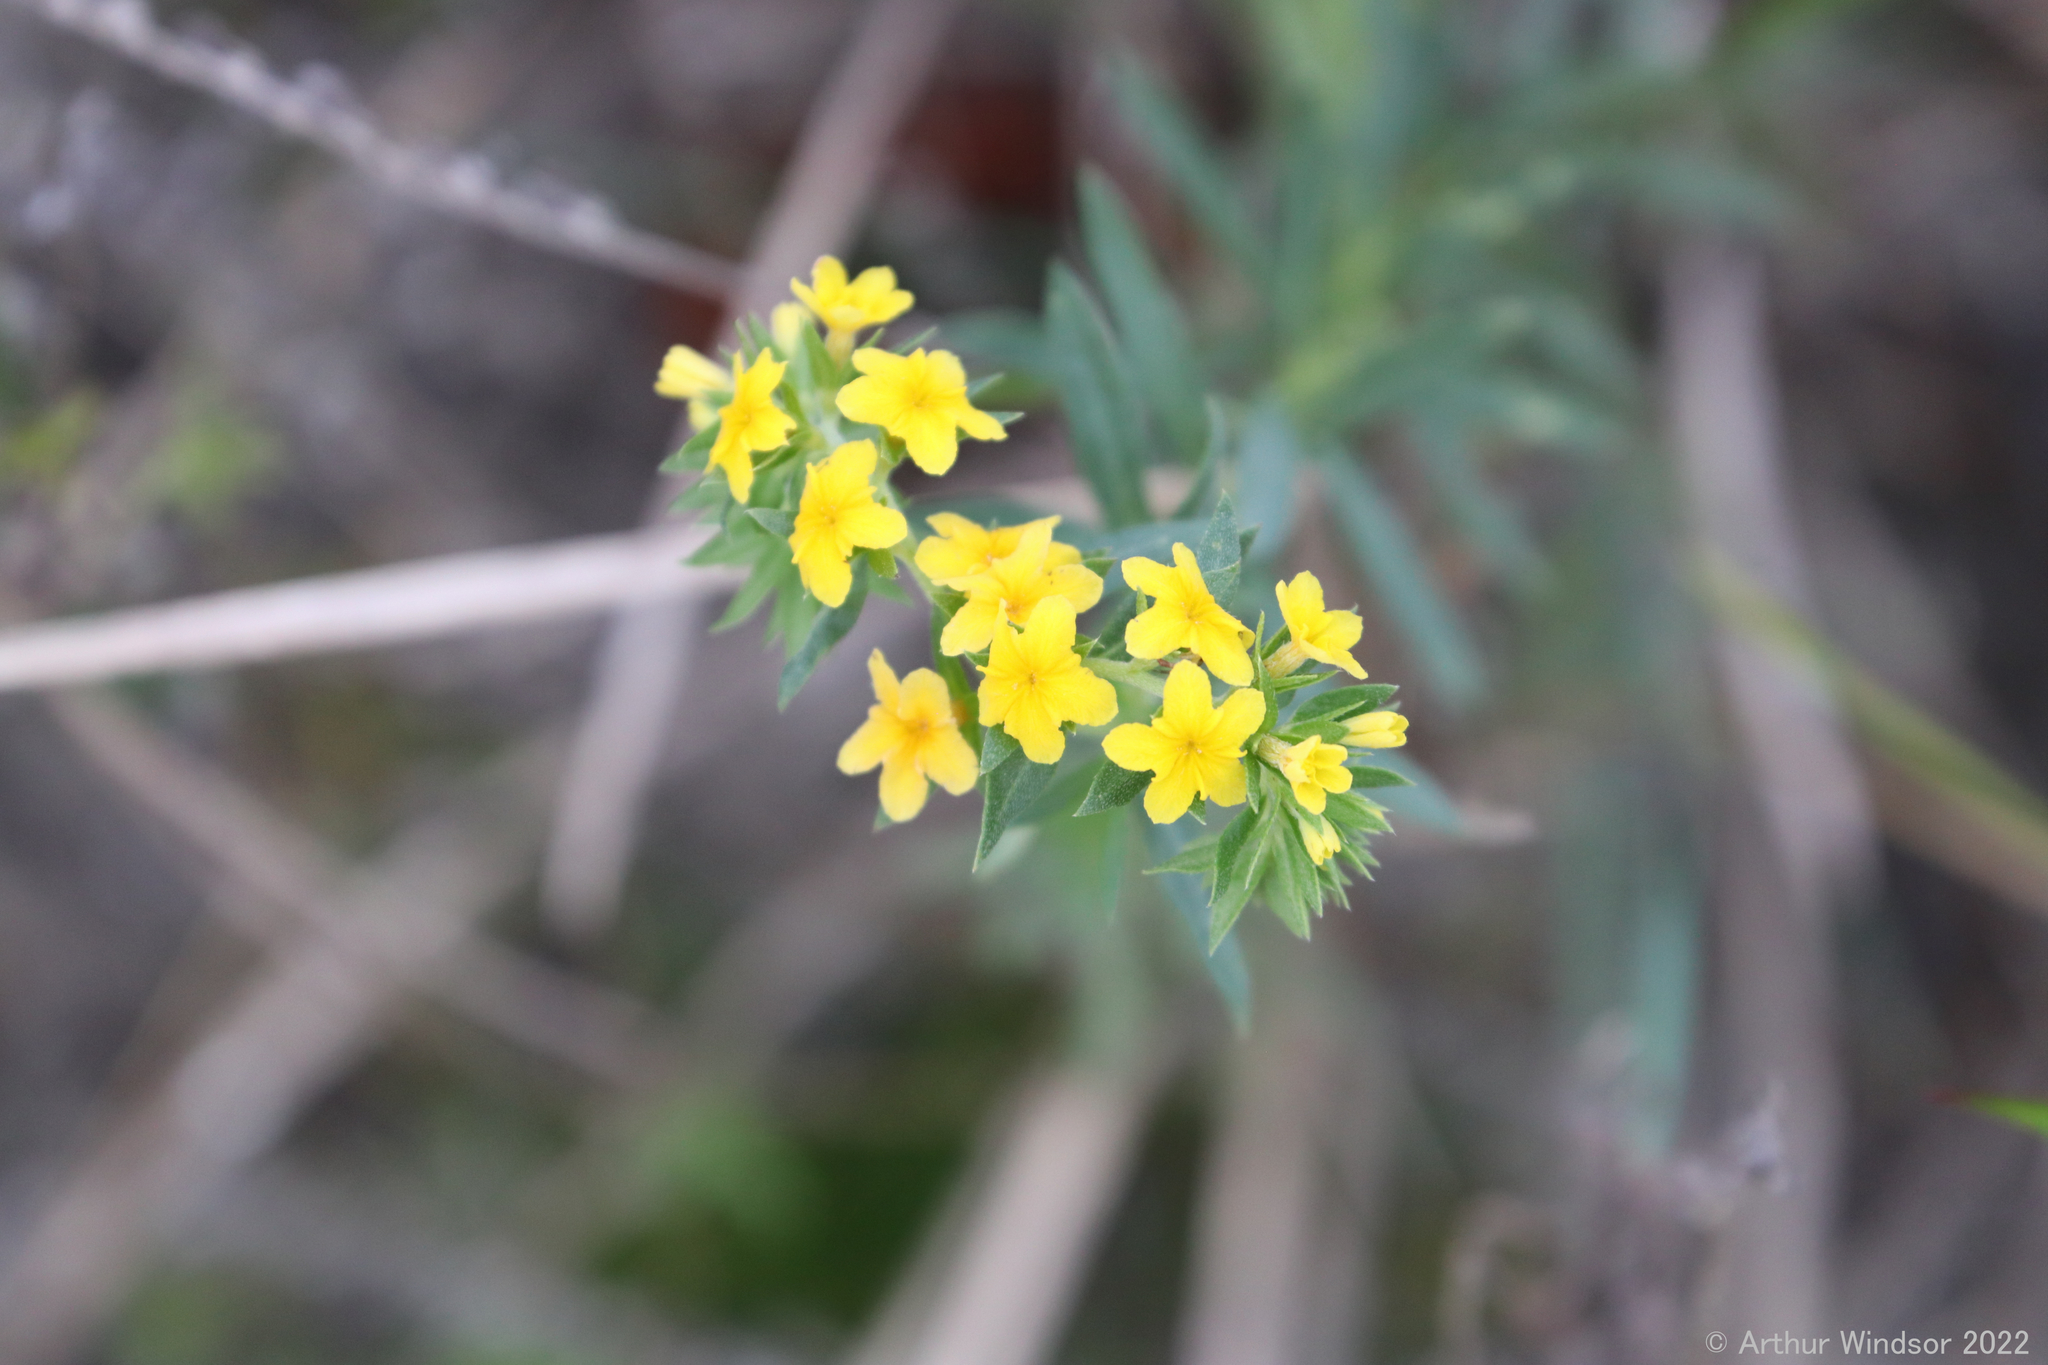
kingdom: Plantae
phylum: Tracheophyta
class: Magnoliopsida
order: Boraginales
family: Heliotropiaceae
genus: Euploca
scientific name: Euploca polyphylla
